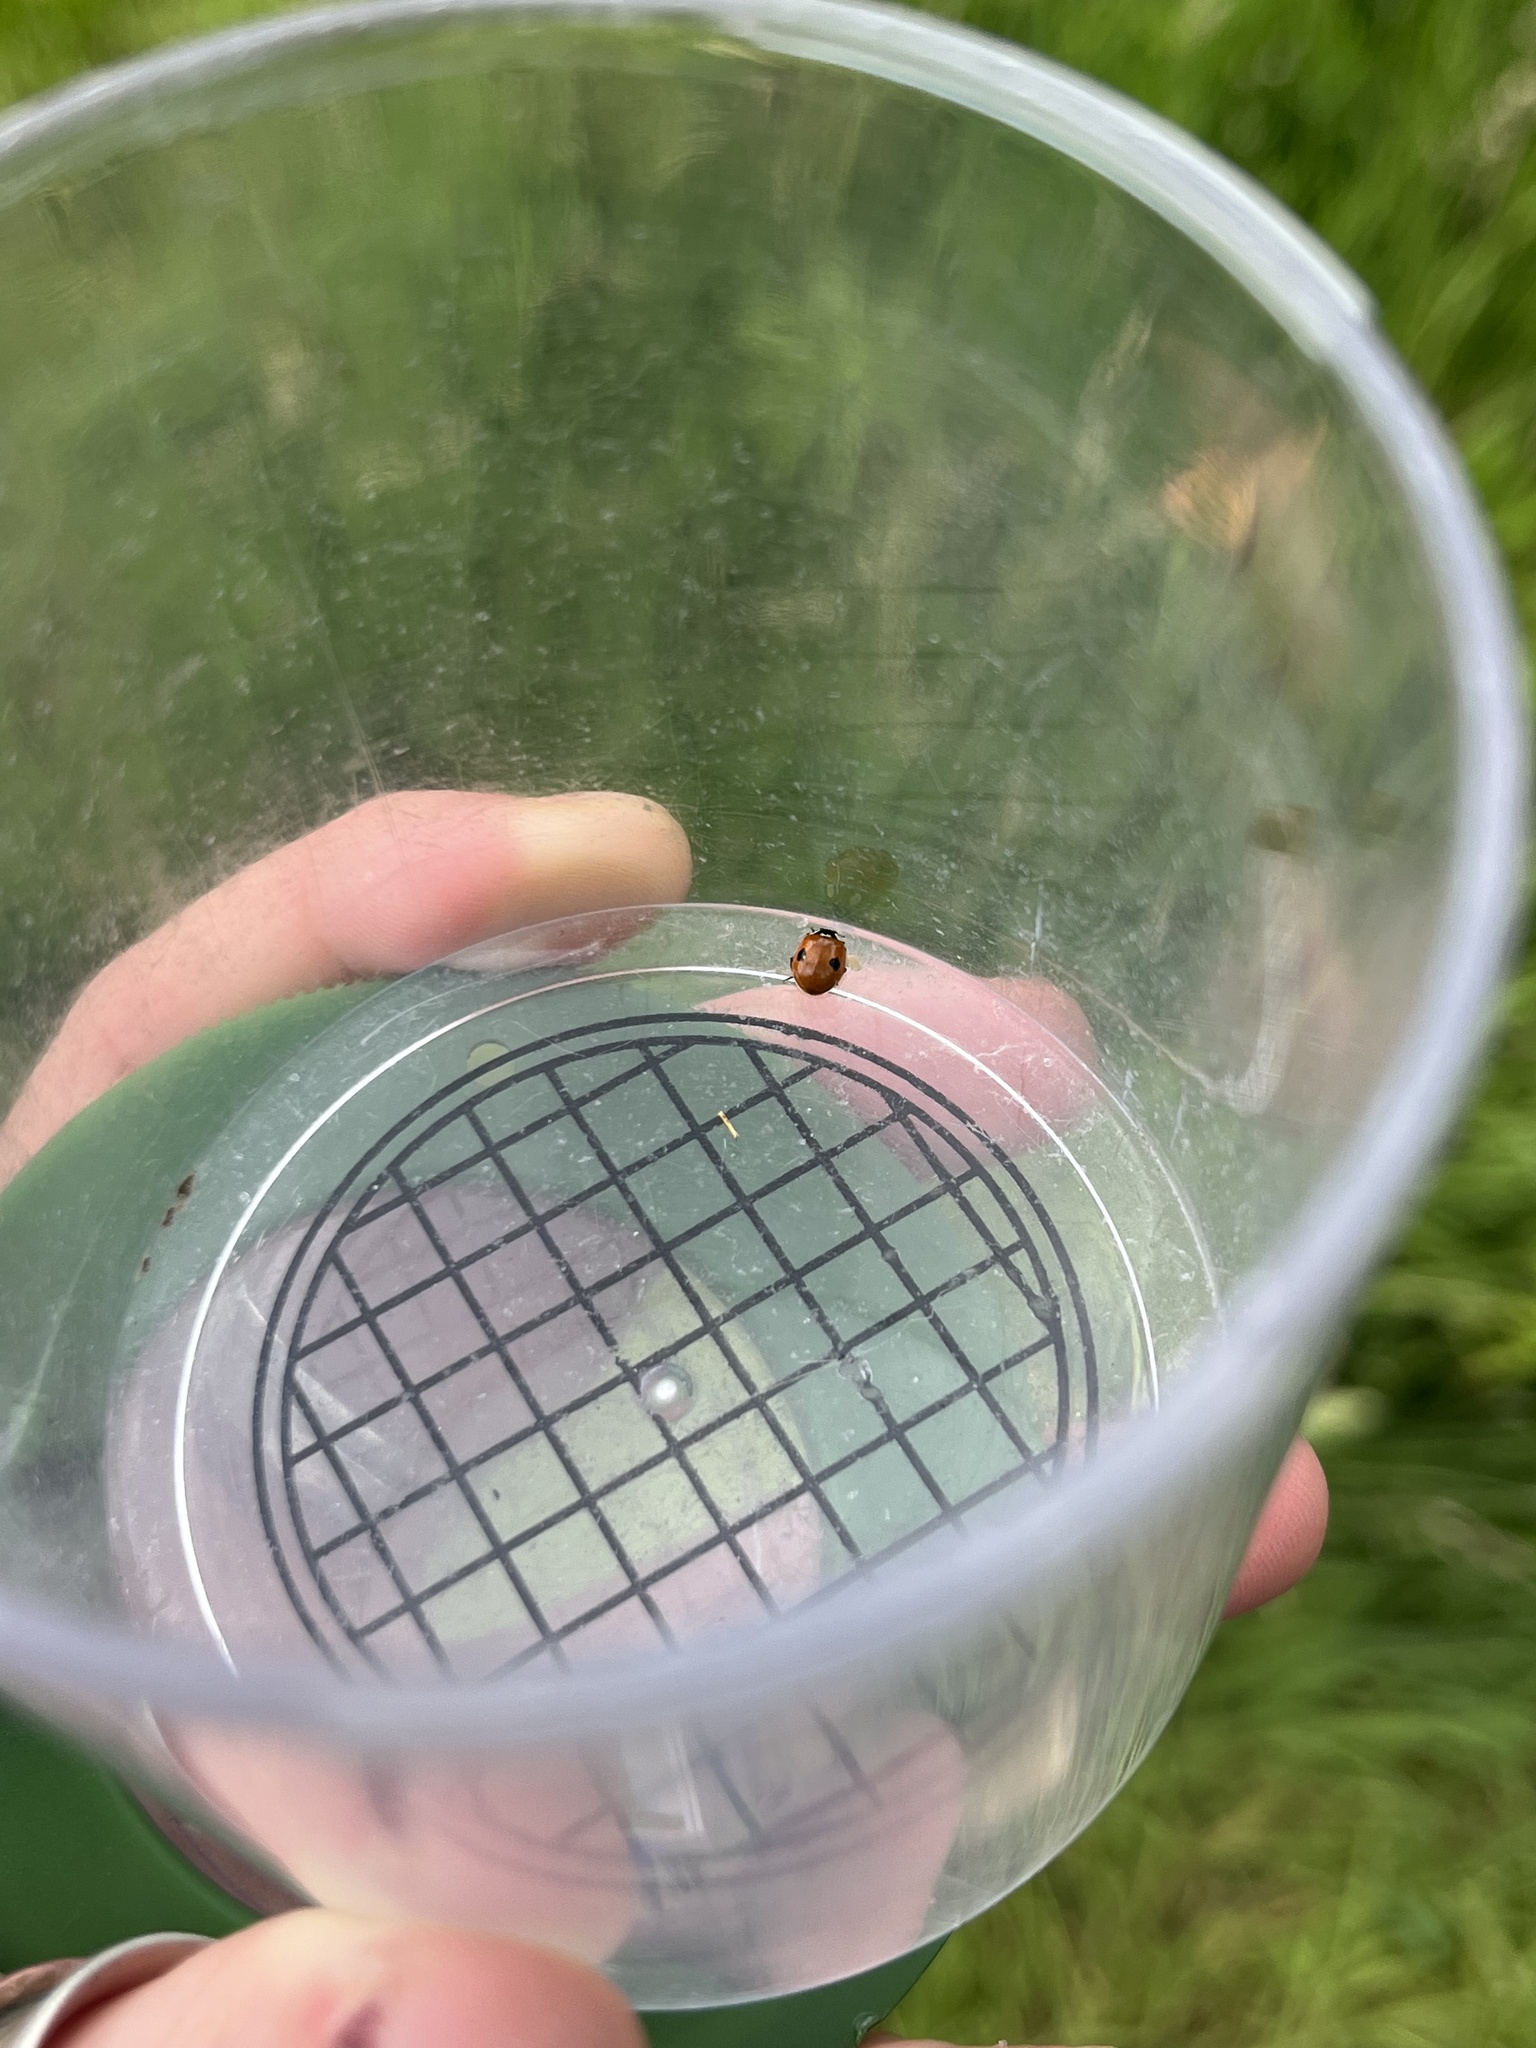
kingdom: Animalia
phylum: Arthropoda
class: Insecta
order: Coleoptera
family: Coccinellidae
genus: Adalia
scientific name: Adalia bipunctata
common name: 2-spot ladybird
